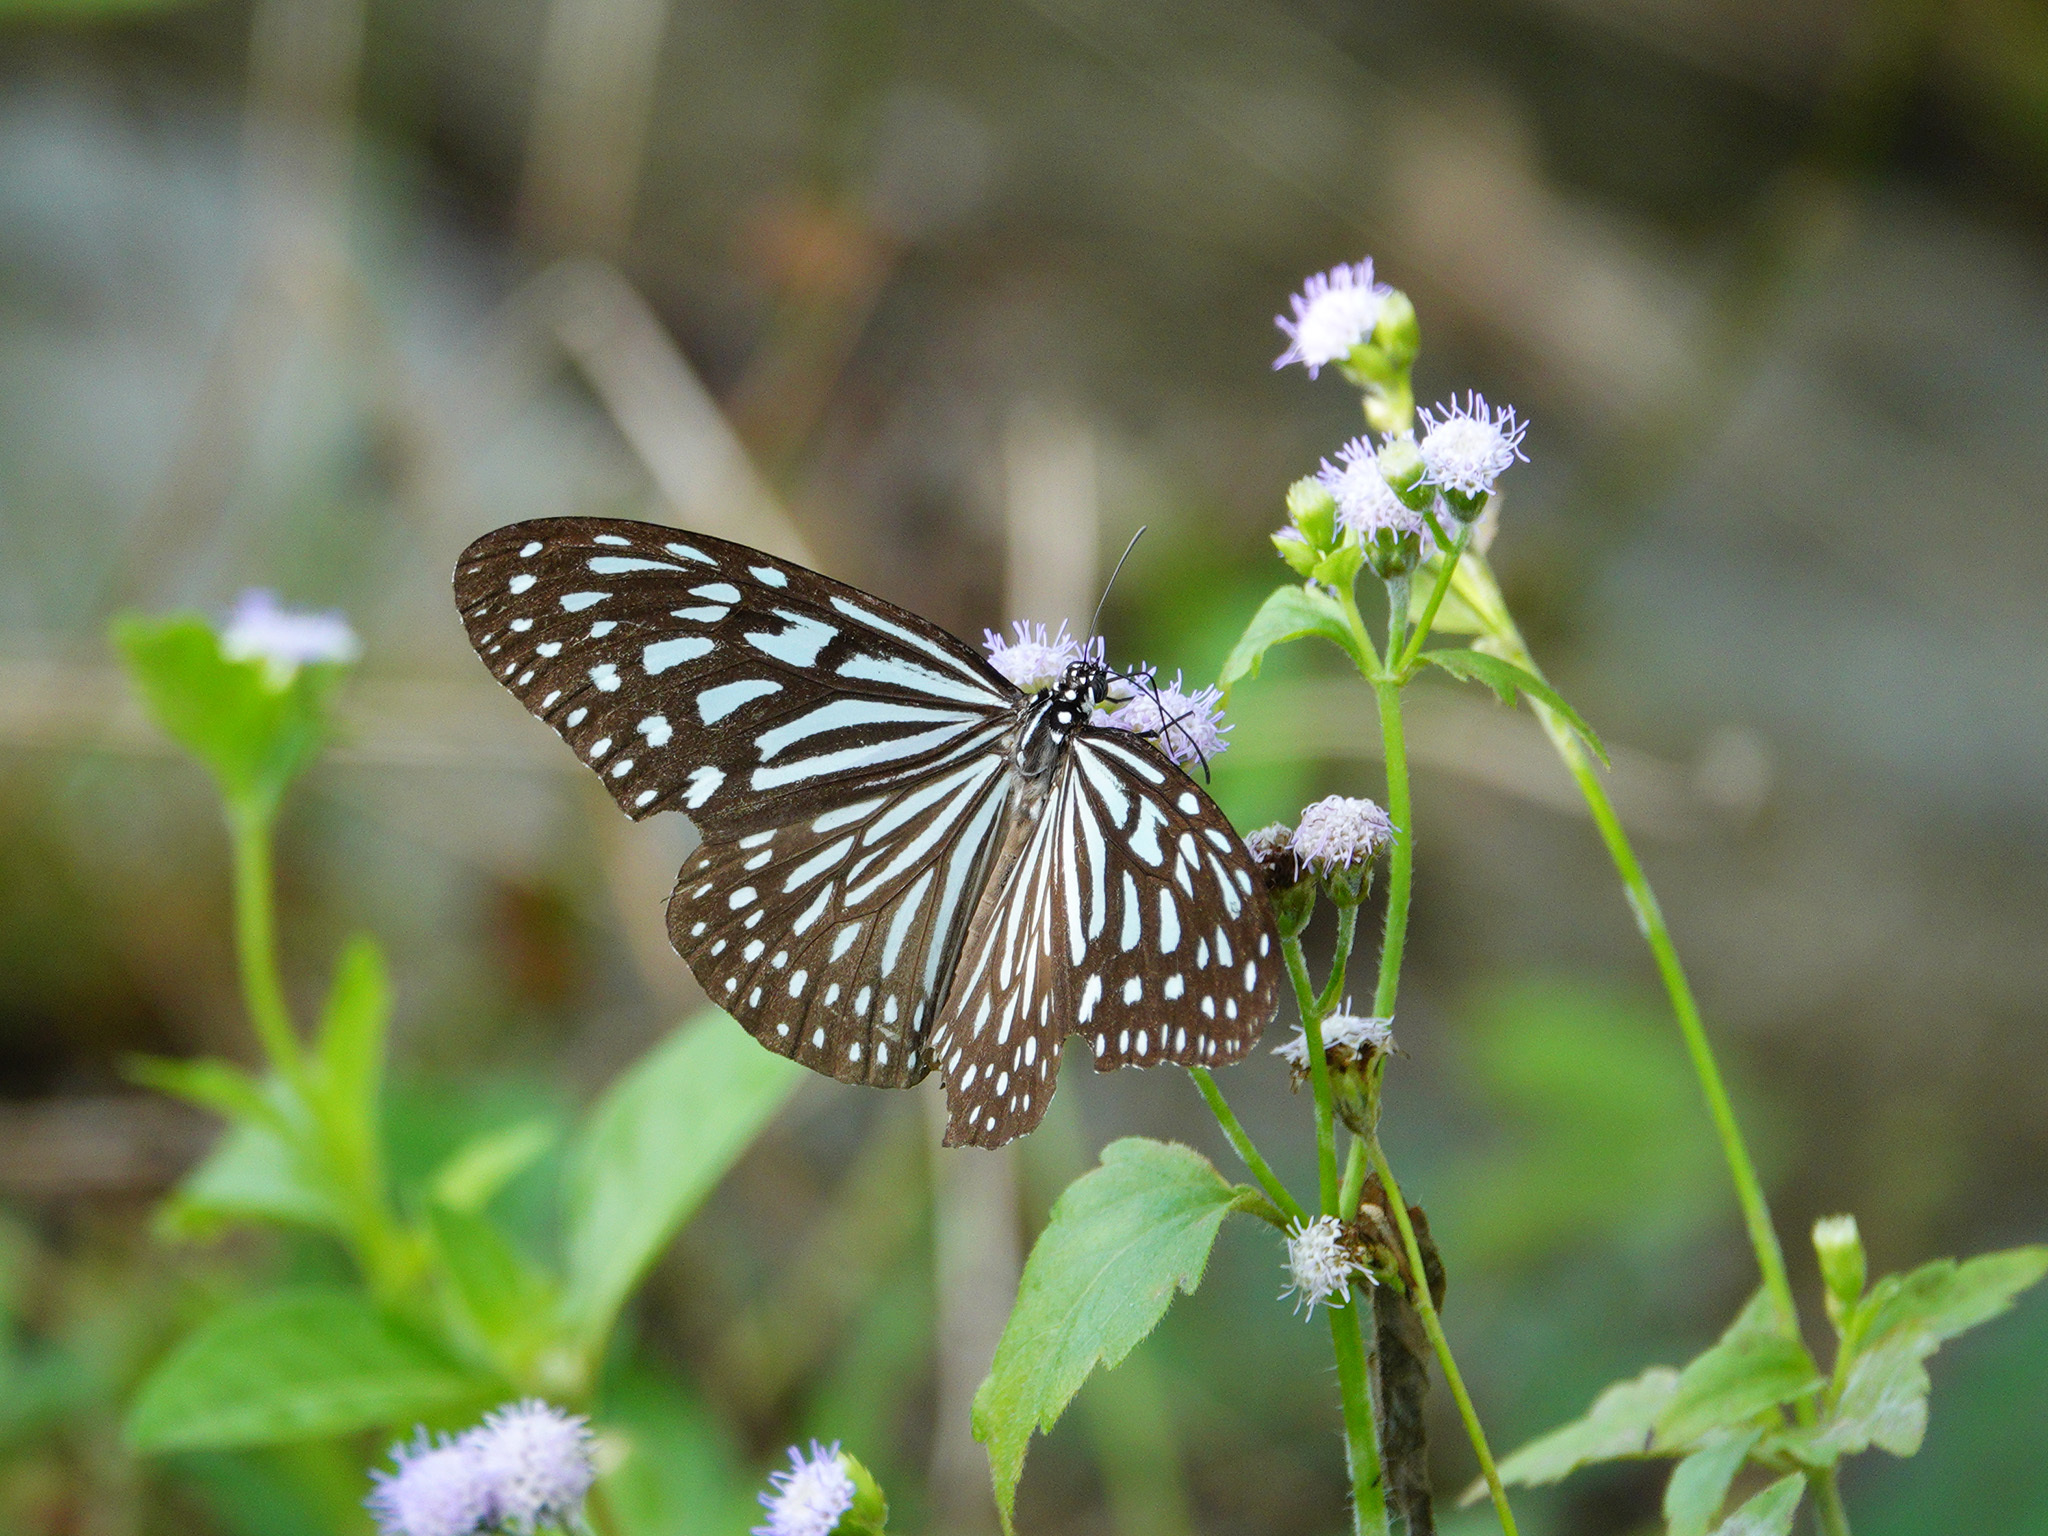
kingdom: Animalia
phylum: Arthropoda
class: Insecta
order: Lepidoptera
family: Nymphalidae
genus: Ideopsis
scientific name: Ideopsis vulgaris
